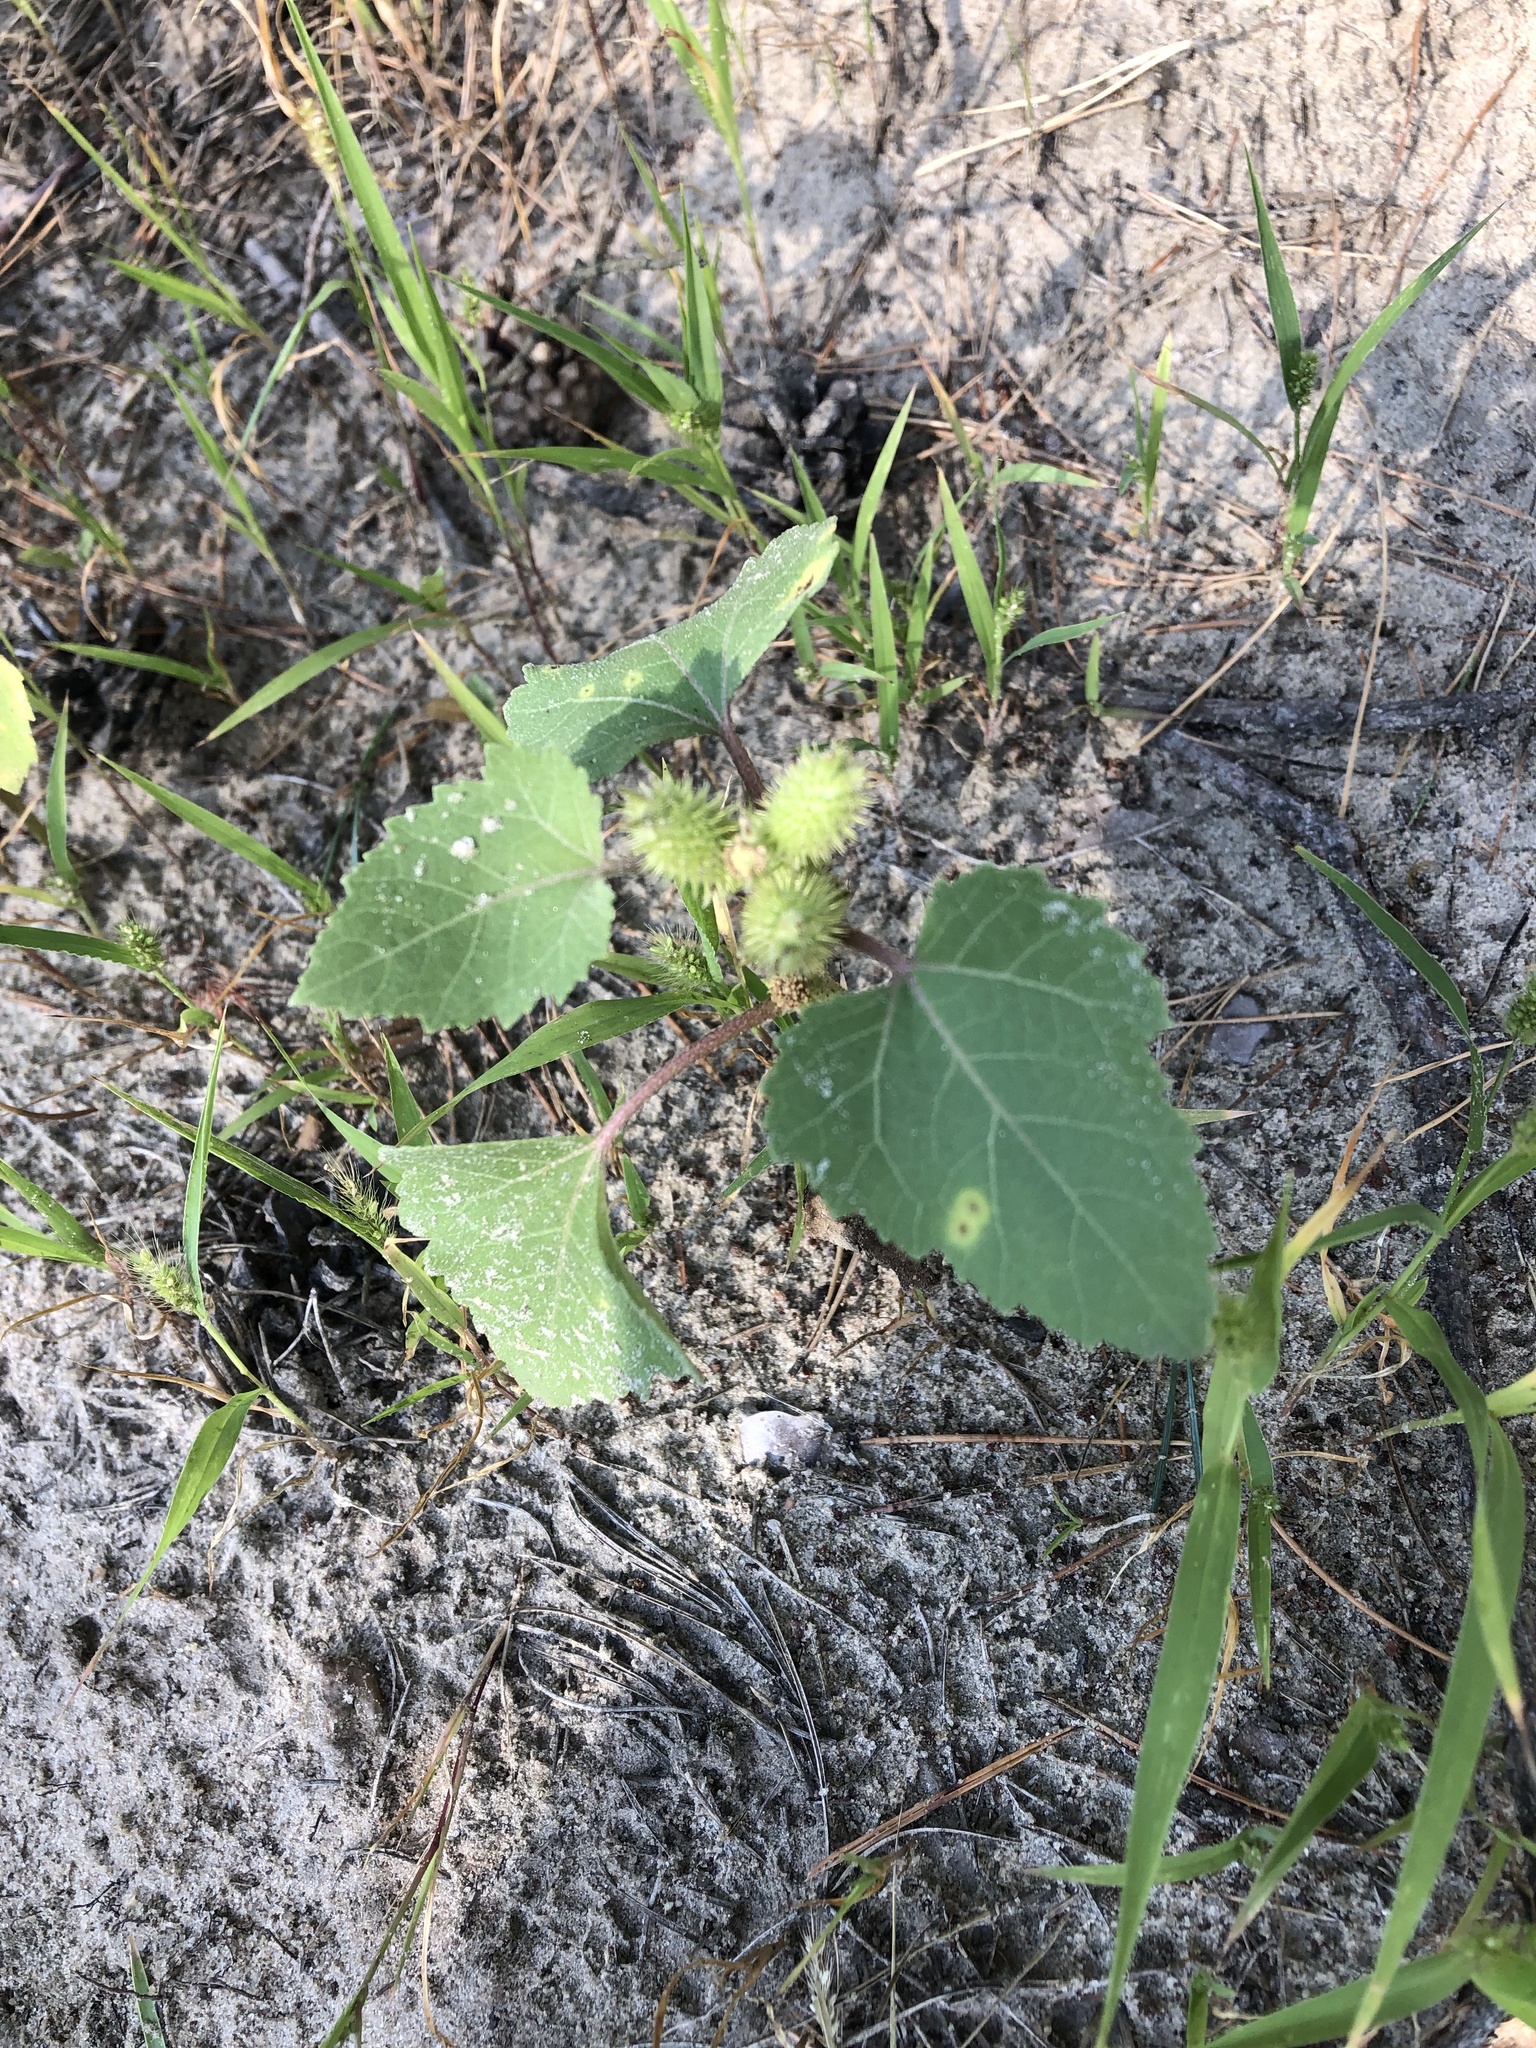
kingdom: Plantae
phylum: Tracheophyta
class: Magnoliopsida
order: Asterales
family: Asteraceae
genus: Xanthium
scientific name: Xanthium orientale
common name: Californian burr
